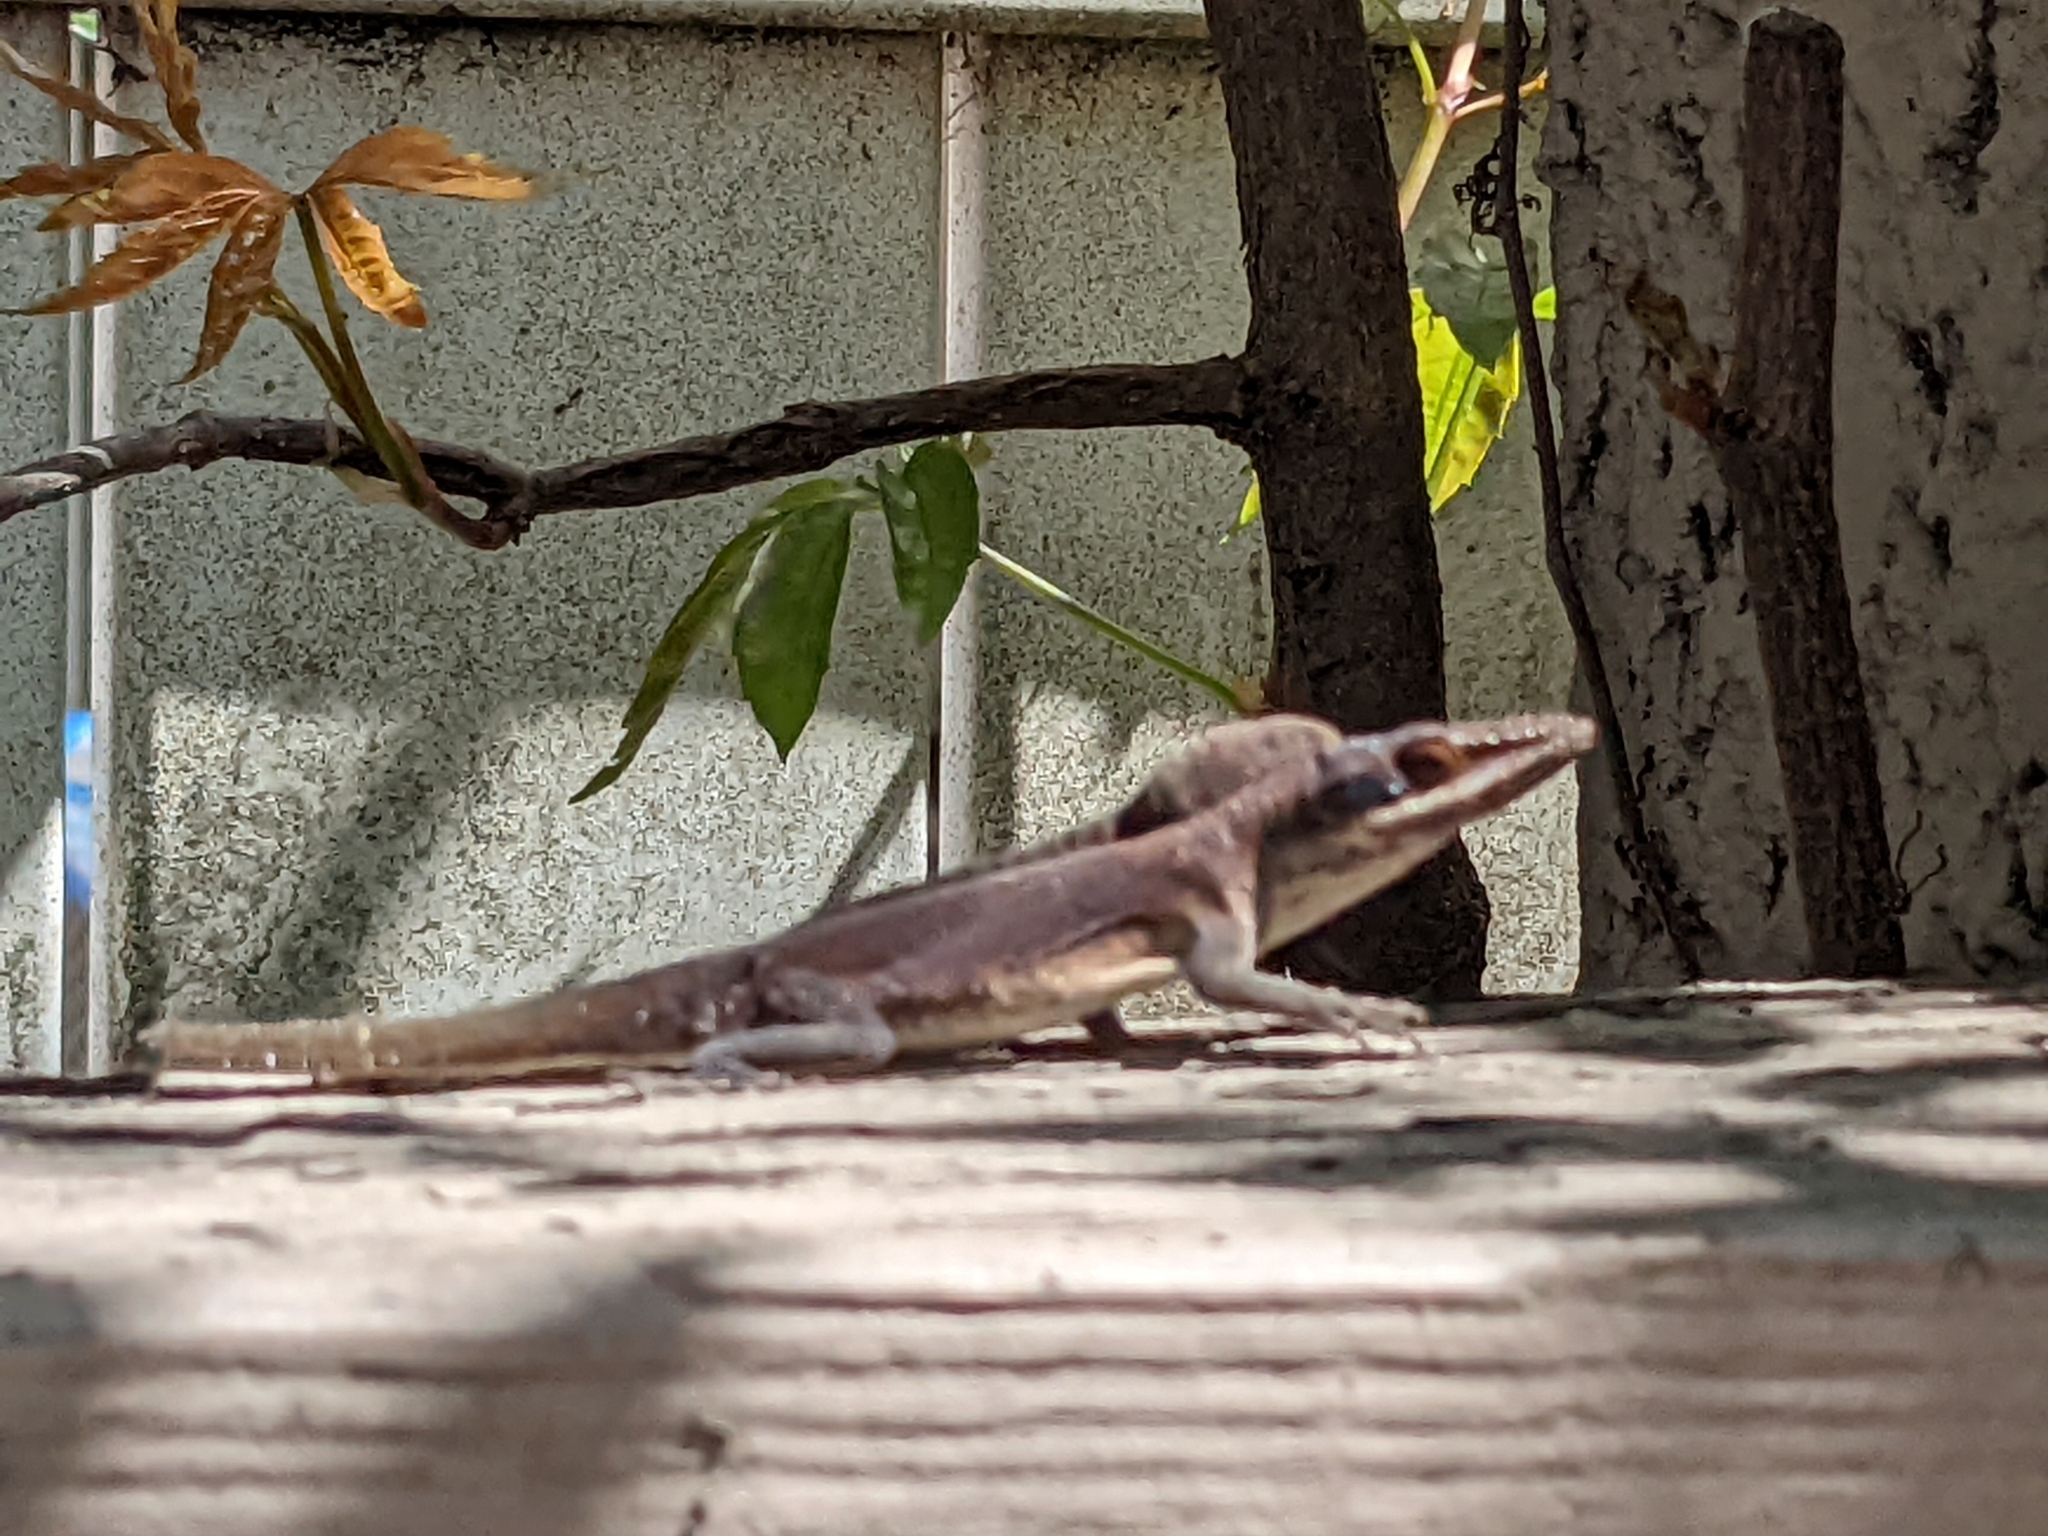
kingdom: Animalia
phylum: Chordata
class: Squamata
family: Dactyloidae
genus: Anolis
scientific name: Anolis carolinensis
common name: Green anole
